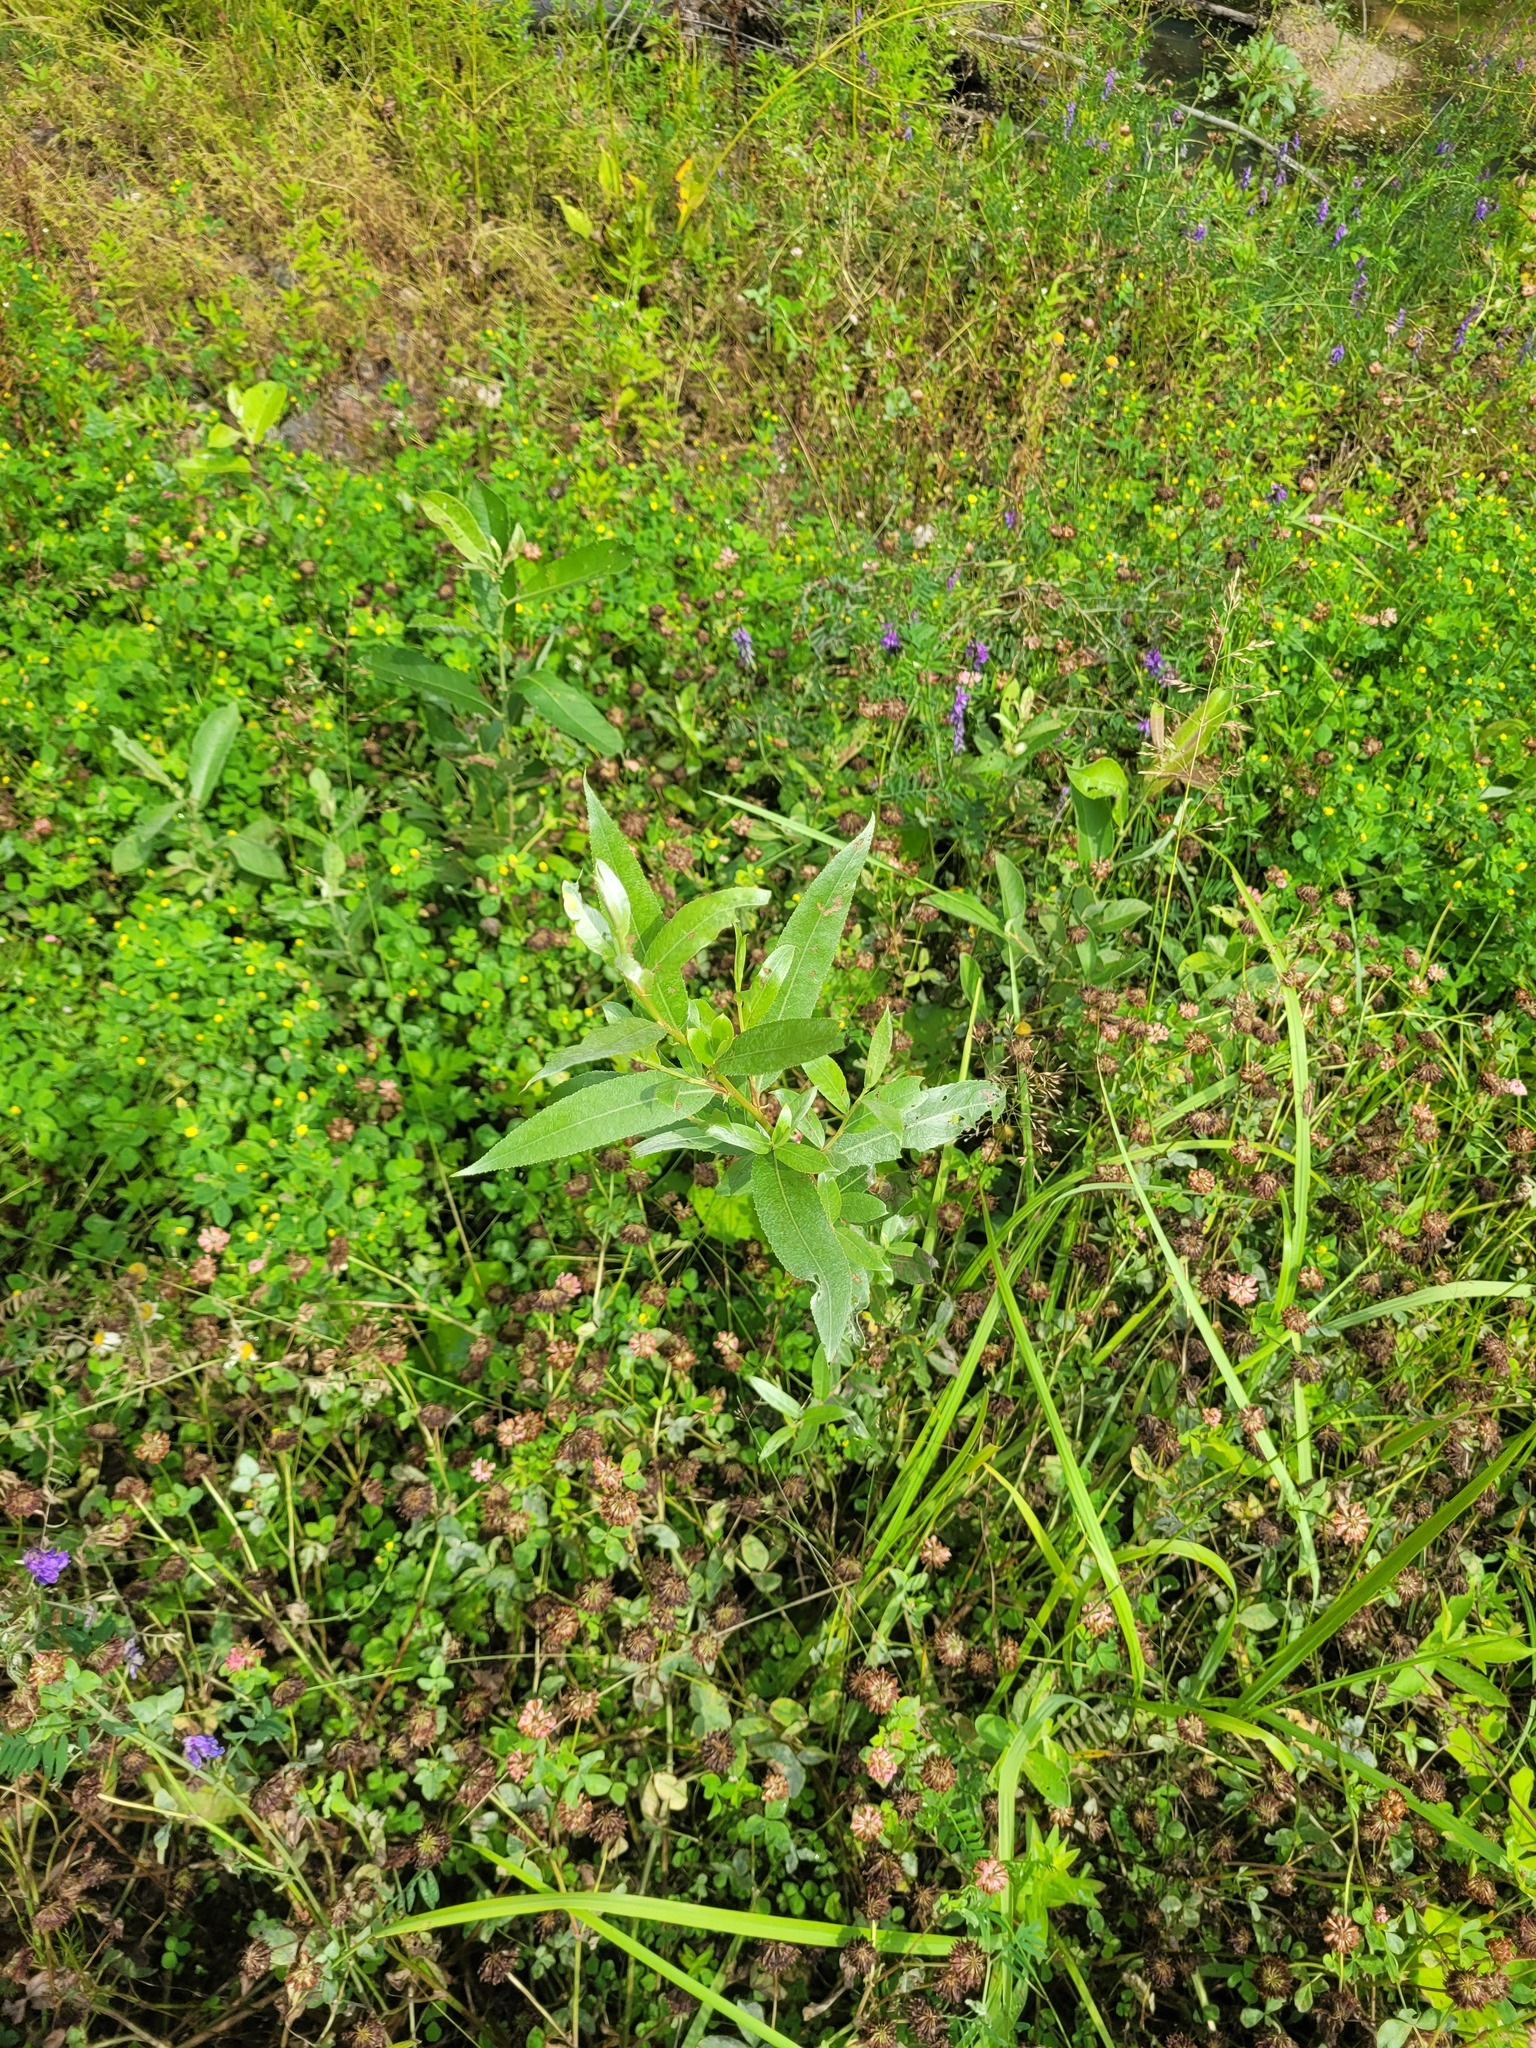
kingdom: Plantae
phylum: Tracheophyta
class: Magnoliopsida
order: Malpighiales
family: Salicaceae
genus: Salix
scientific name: Salix alba
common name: White willow
